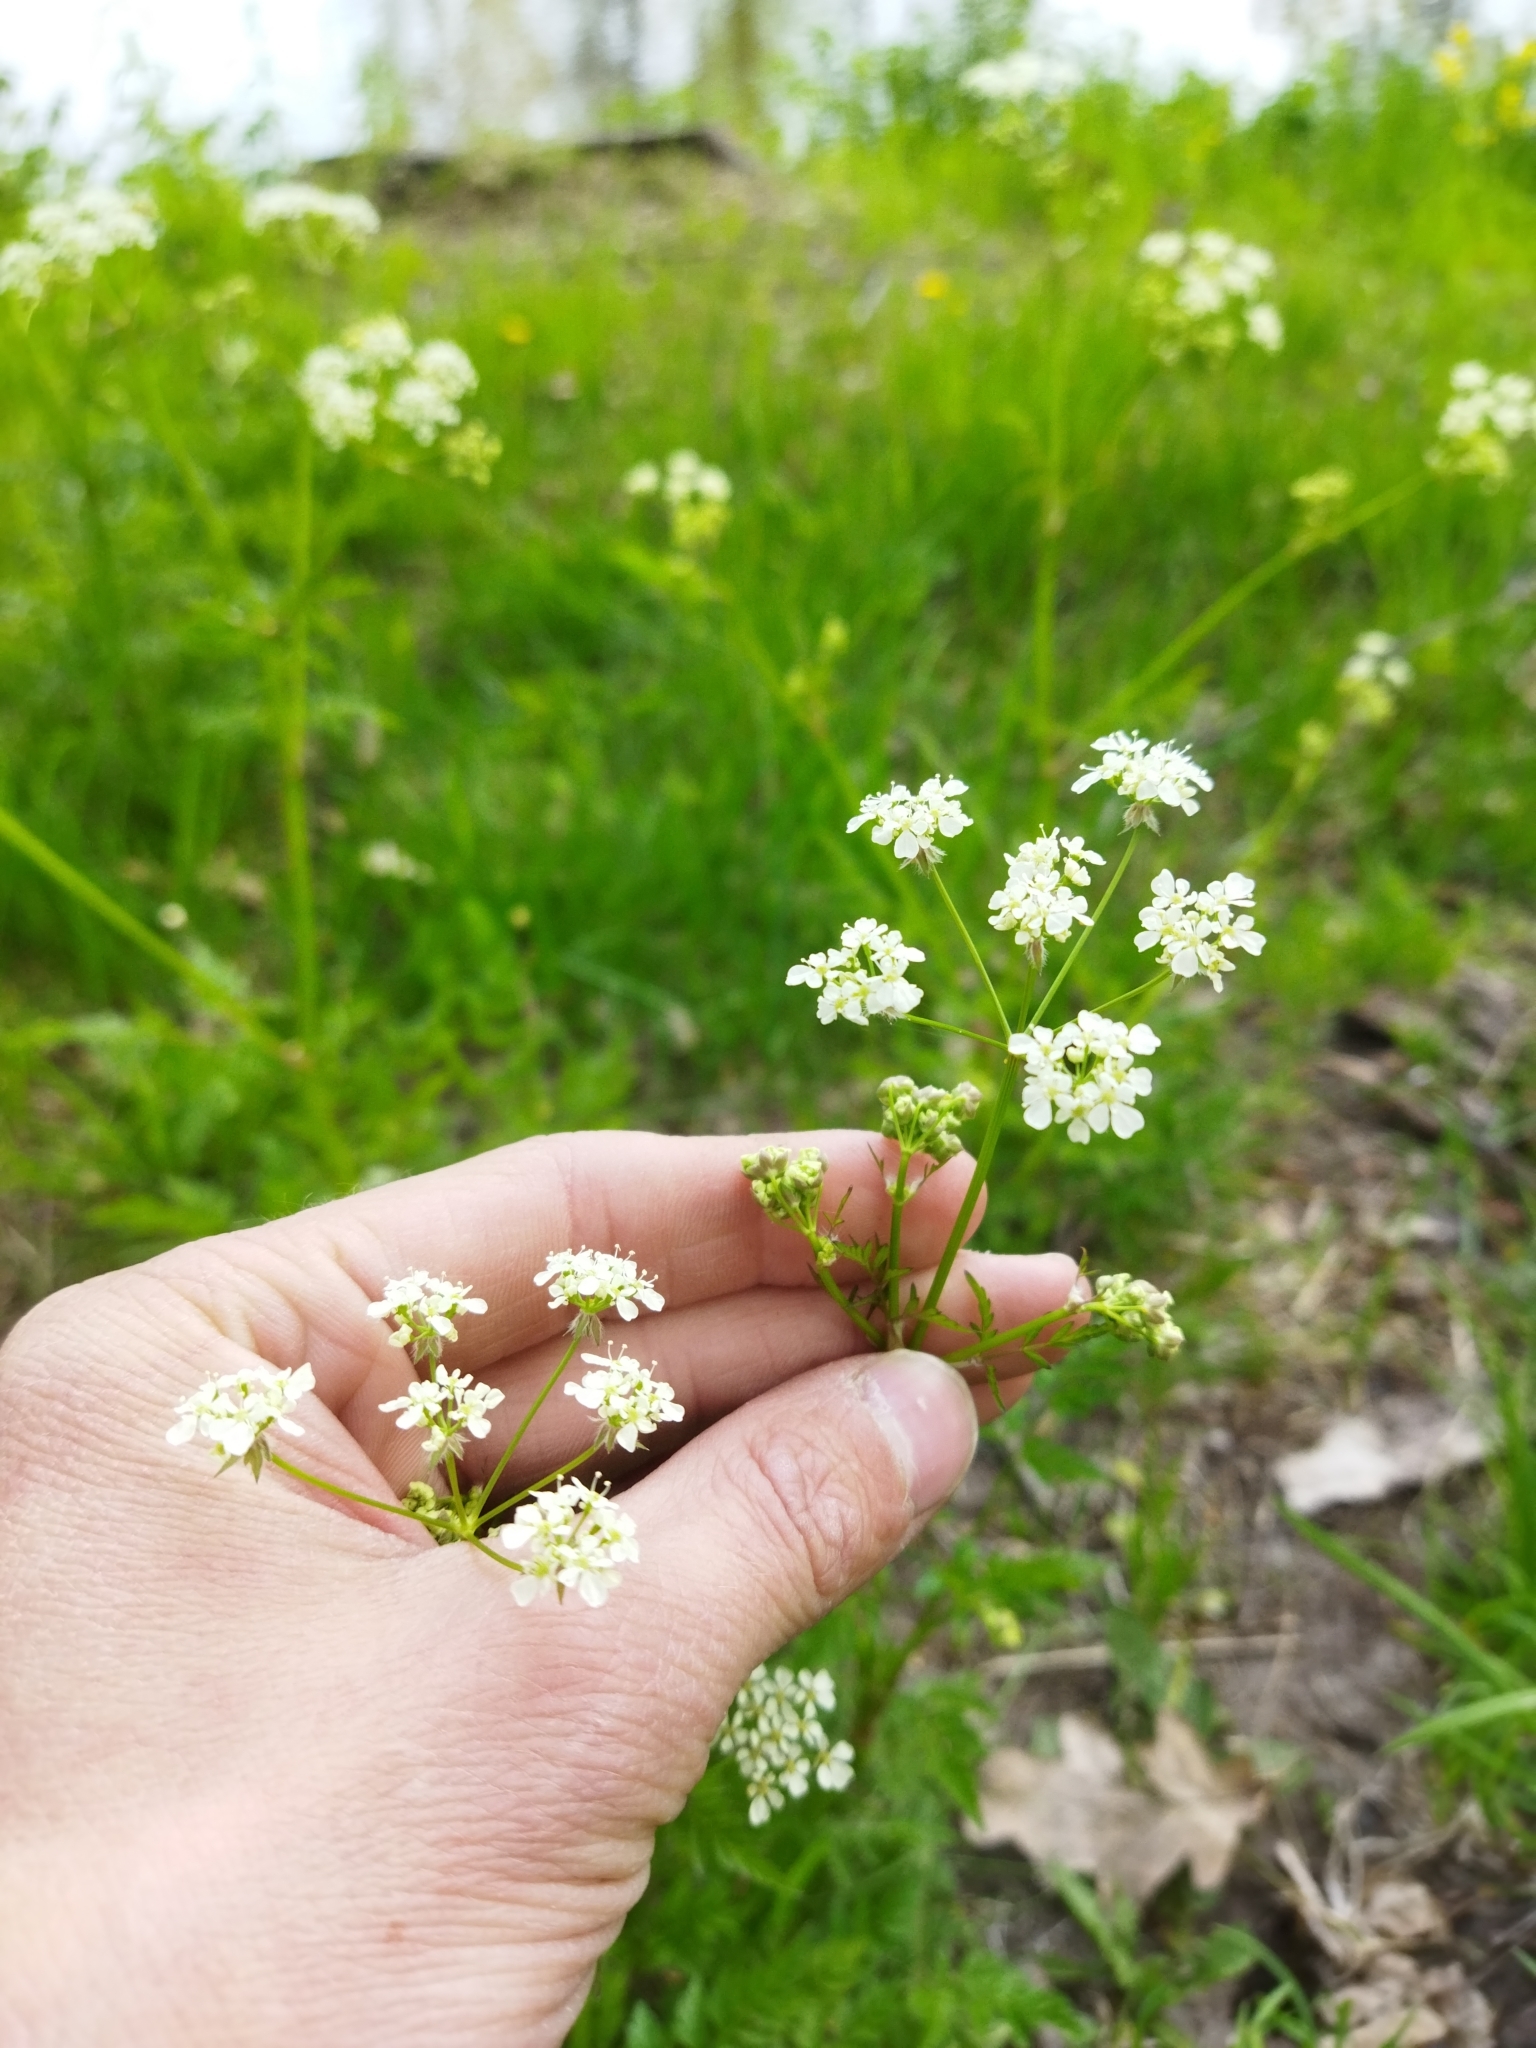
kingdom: Plantae
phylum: Tracheophyta
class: Magnoliopsida
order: Apiales
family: Apiaceae
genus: Conium
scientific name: Conium maculatum
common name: Hemlock
